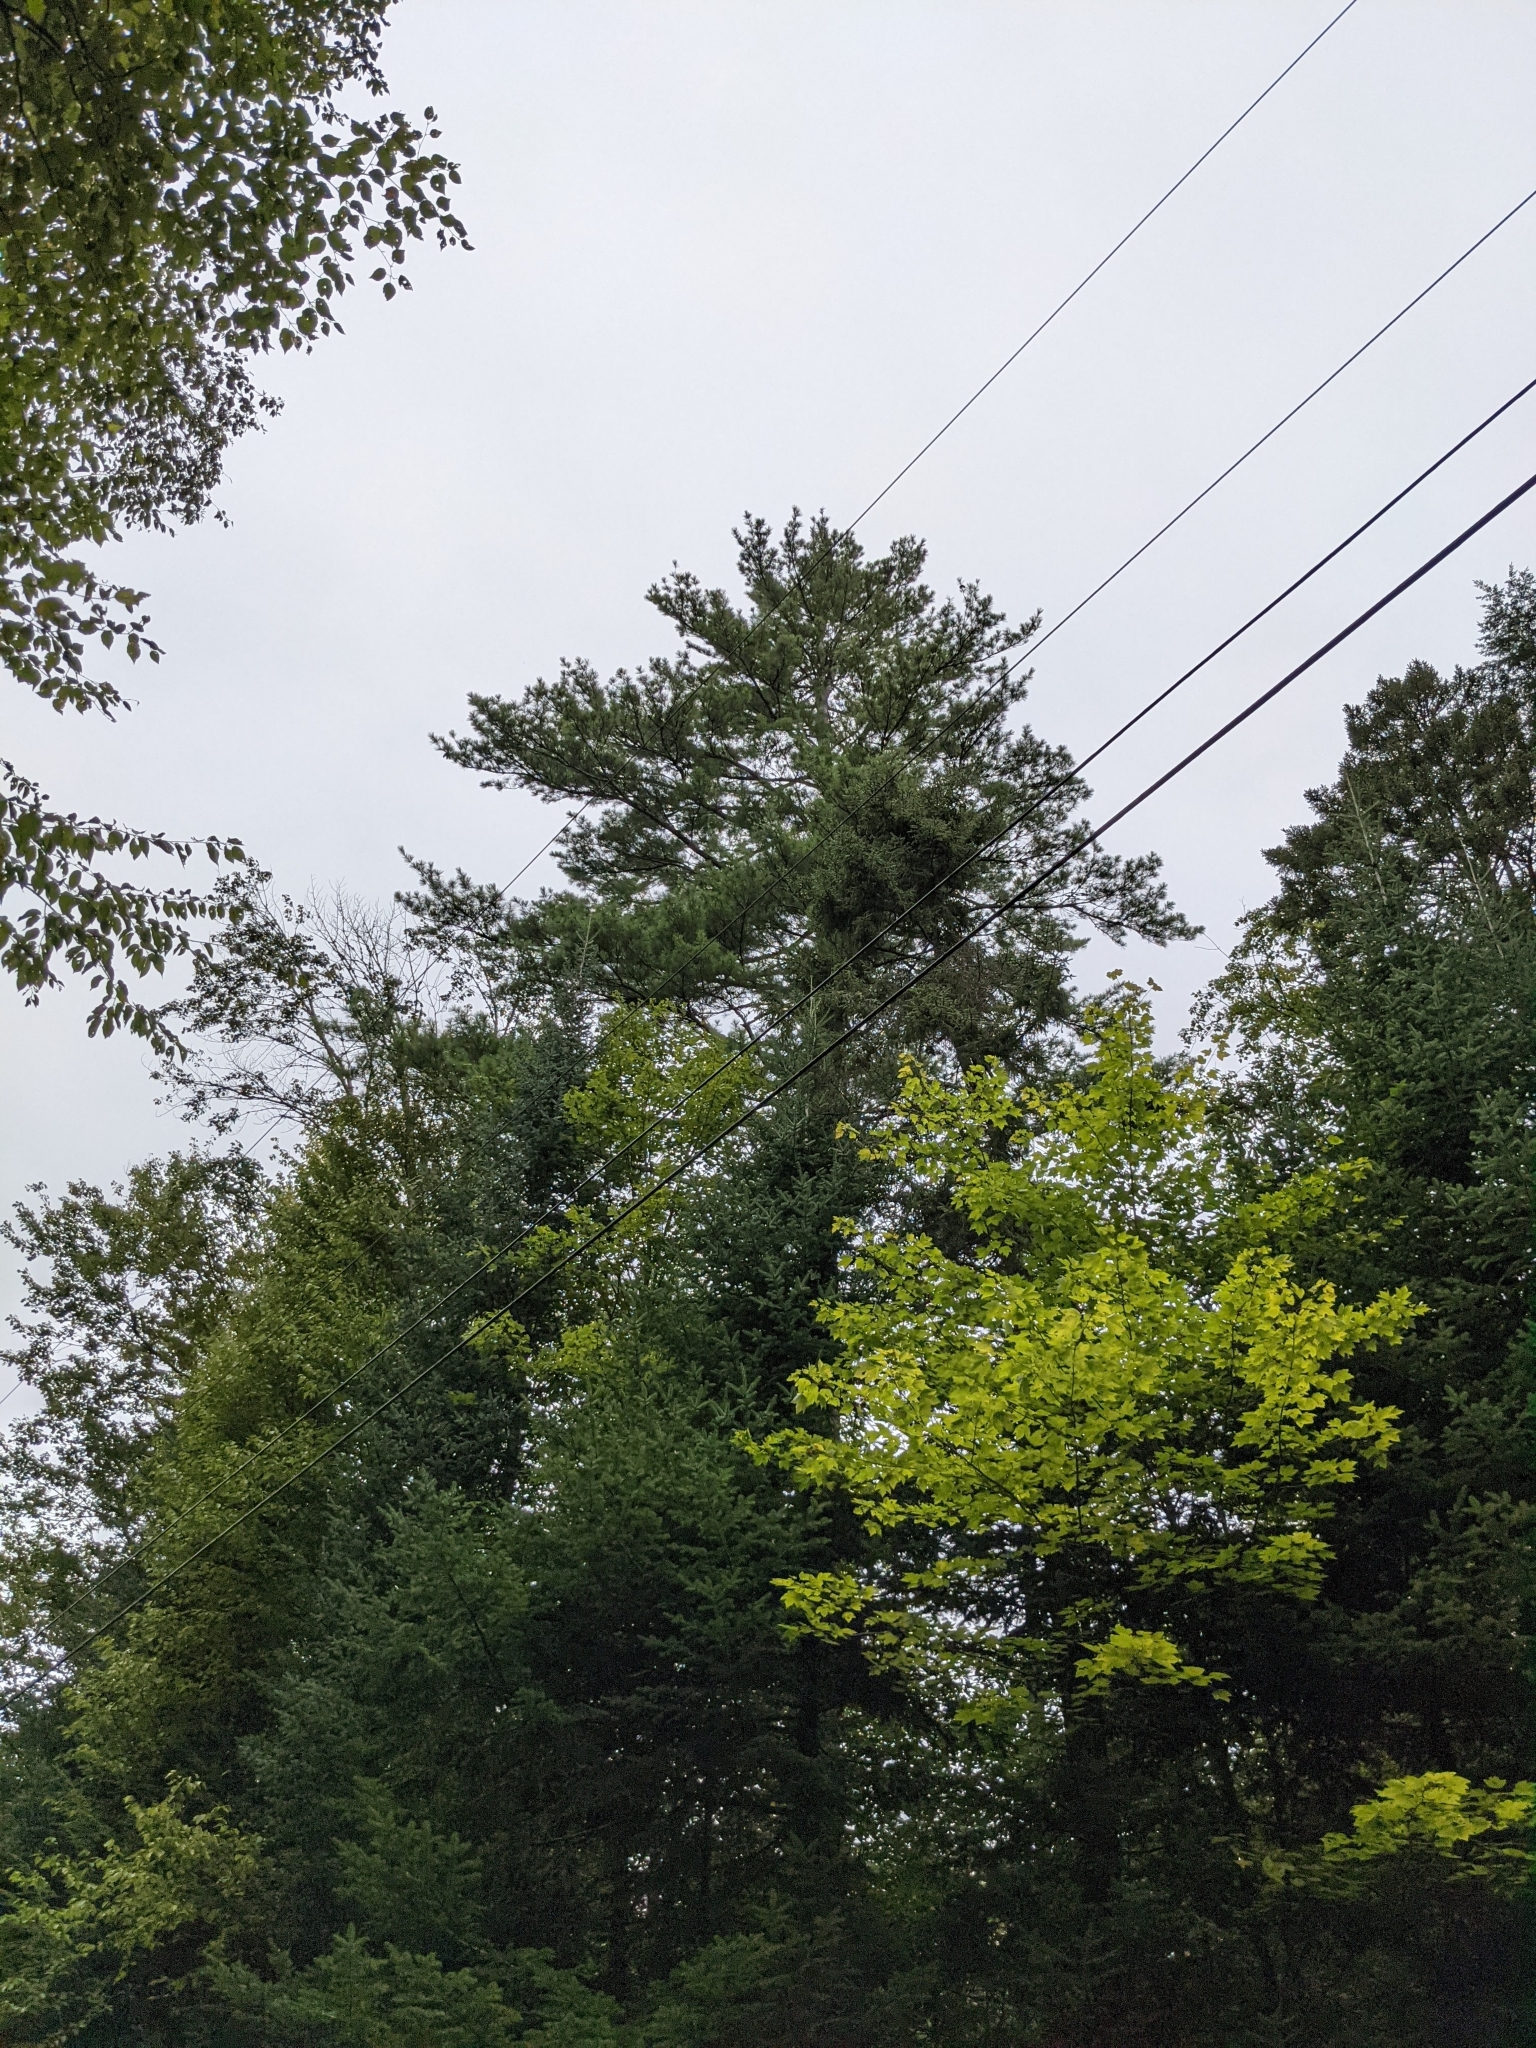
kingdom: Plantae
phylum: Tracheophyta
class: Pinopsida
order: Pinales
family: Pinaceae
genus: Pinus
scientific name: Pinus strobus
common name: Weymouth pine
